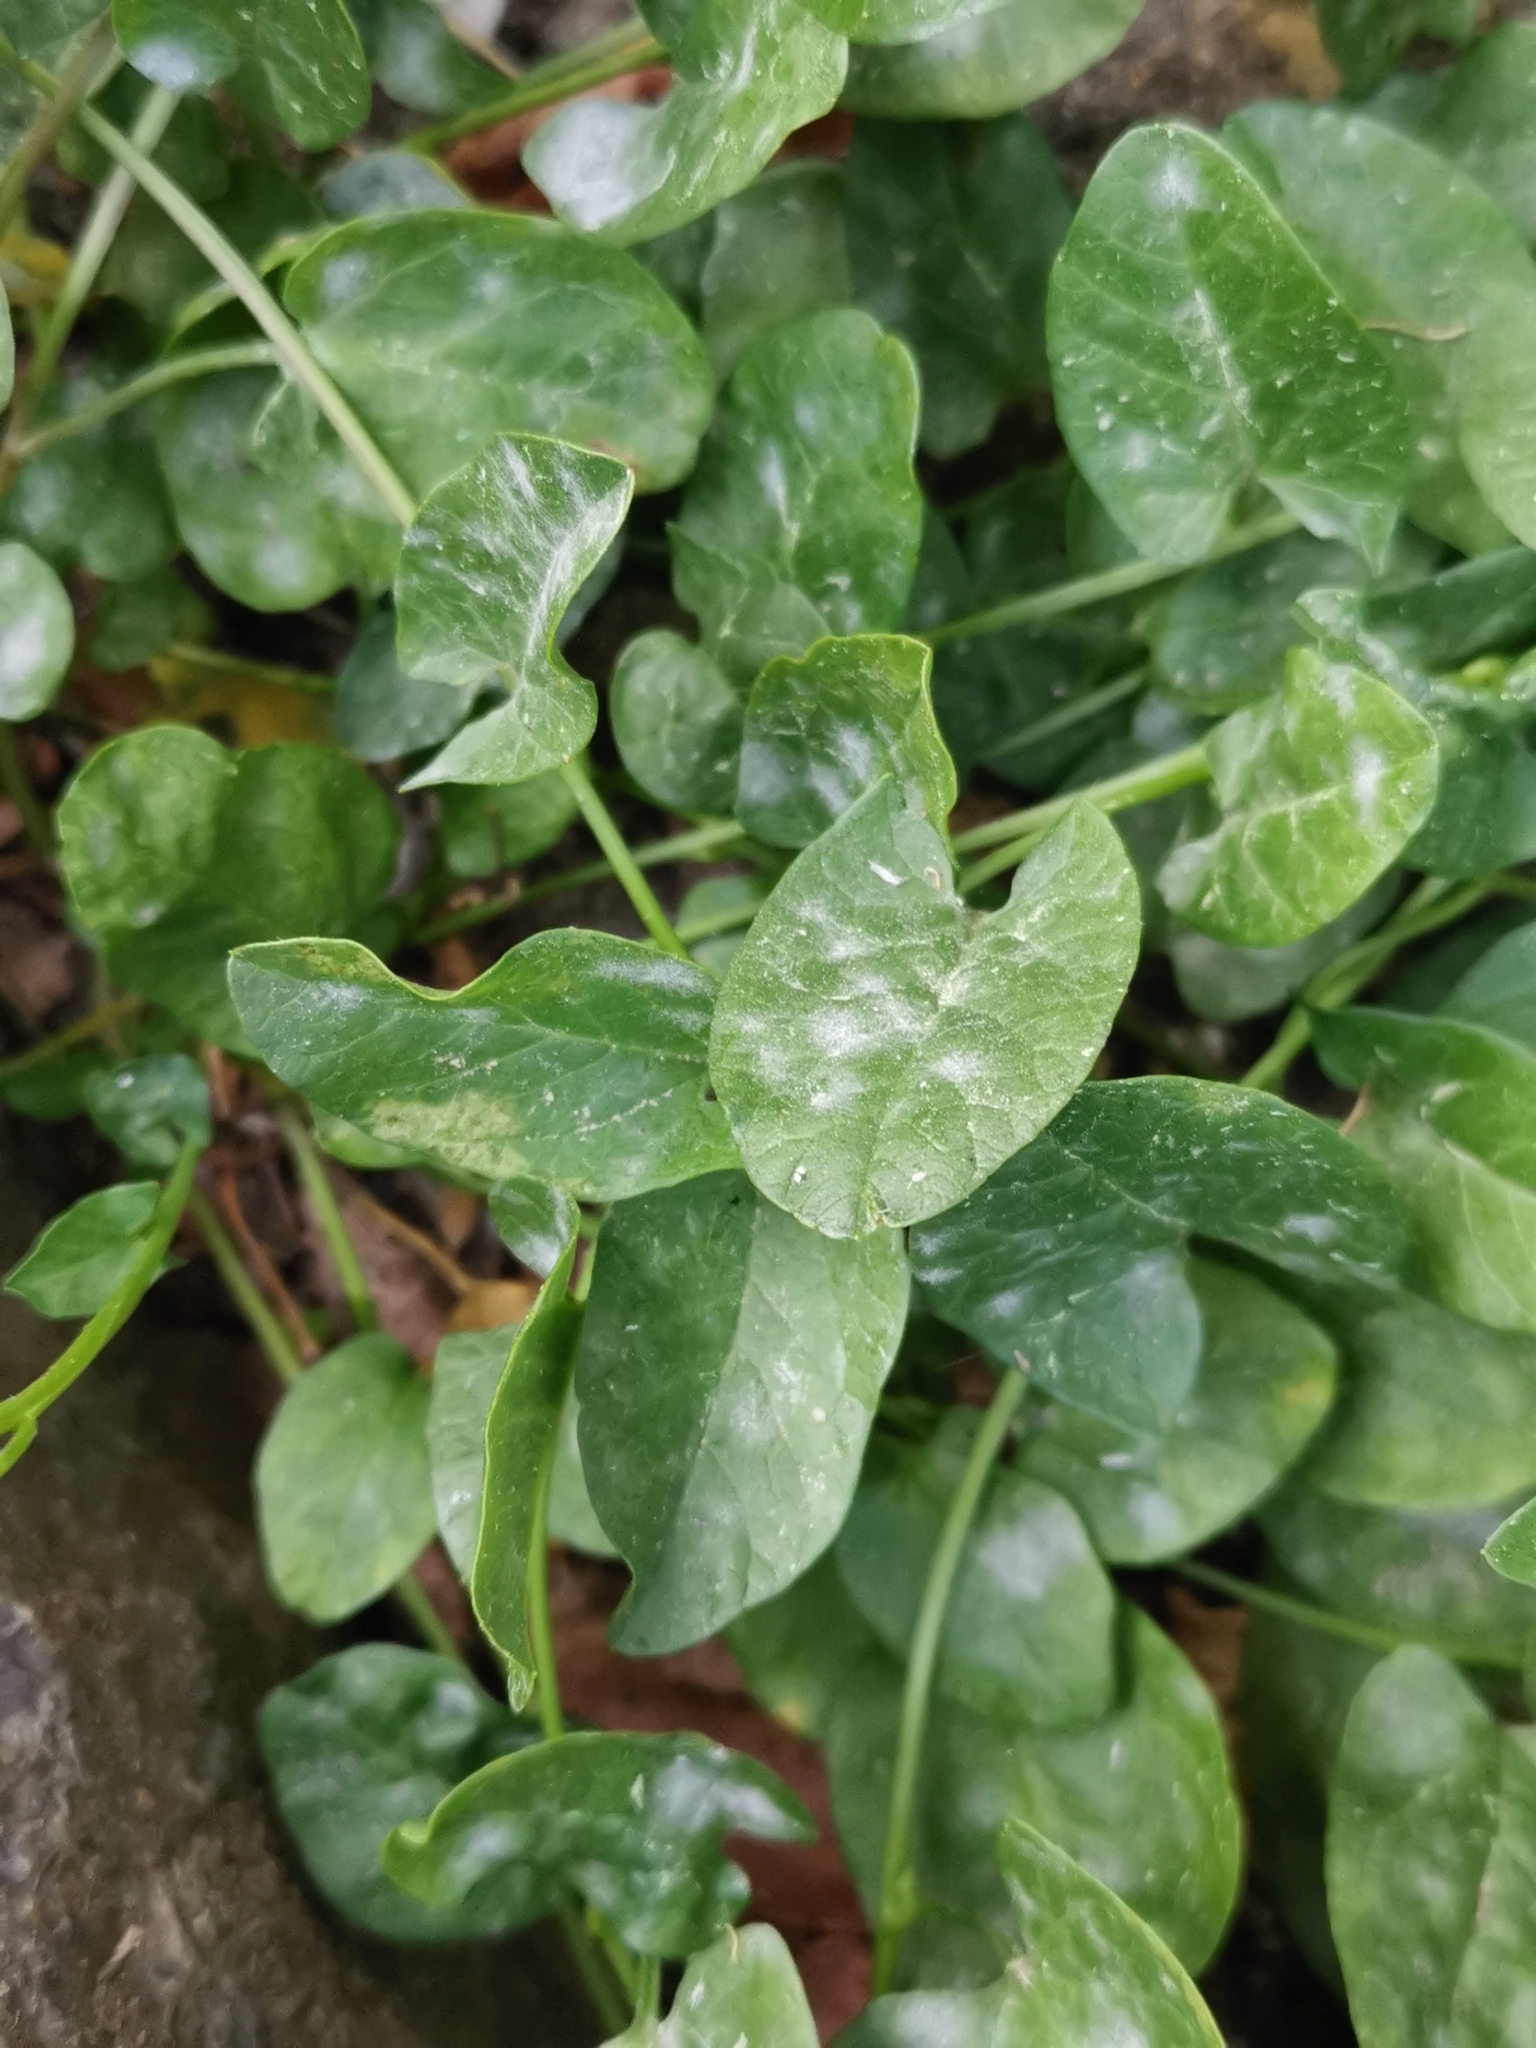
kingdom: Fungi
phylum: Ascomycota
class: Leotiomycetes
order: Helotiales
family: Erysiphaceae
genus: Erysiphe
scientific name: Erysiphe convolvuli
